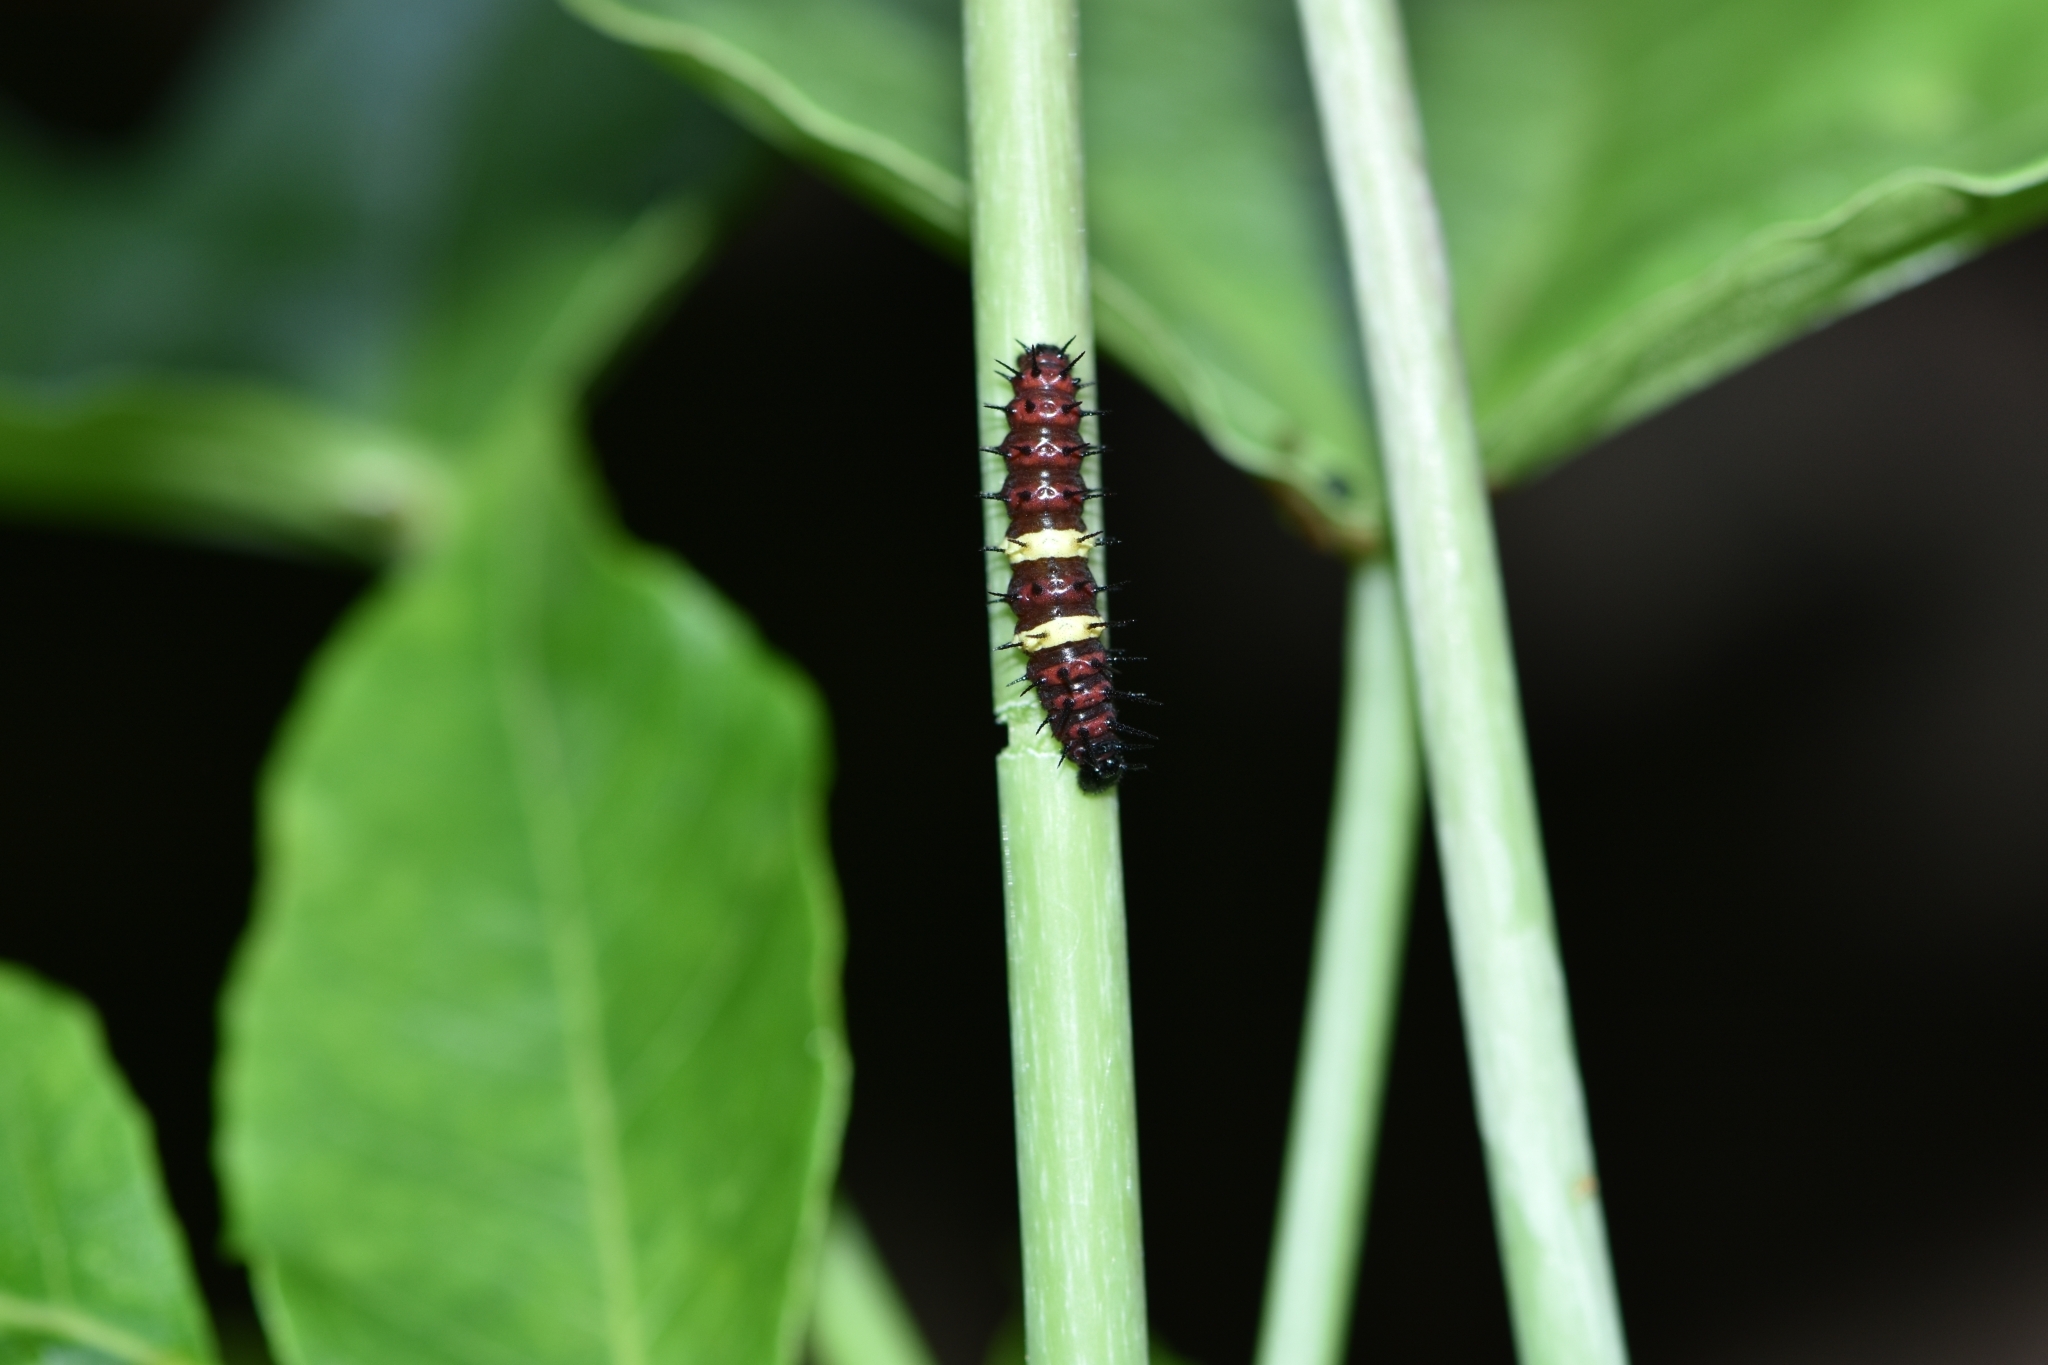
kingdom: Animalia
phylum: Arthropoda
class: Insecta
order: Lepidoptera
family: Nymphalidae
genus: Cethosia
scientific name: Cethosia
